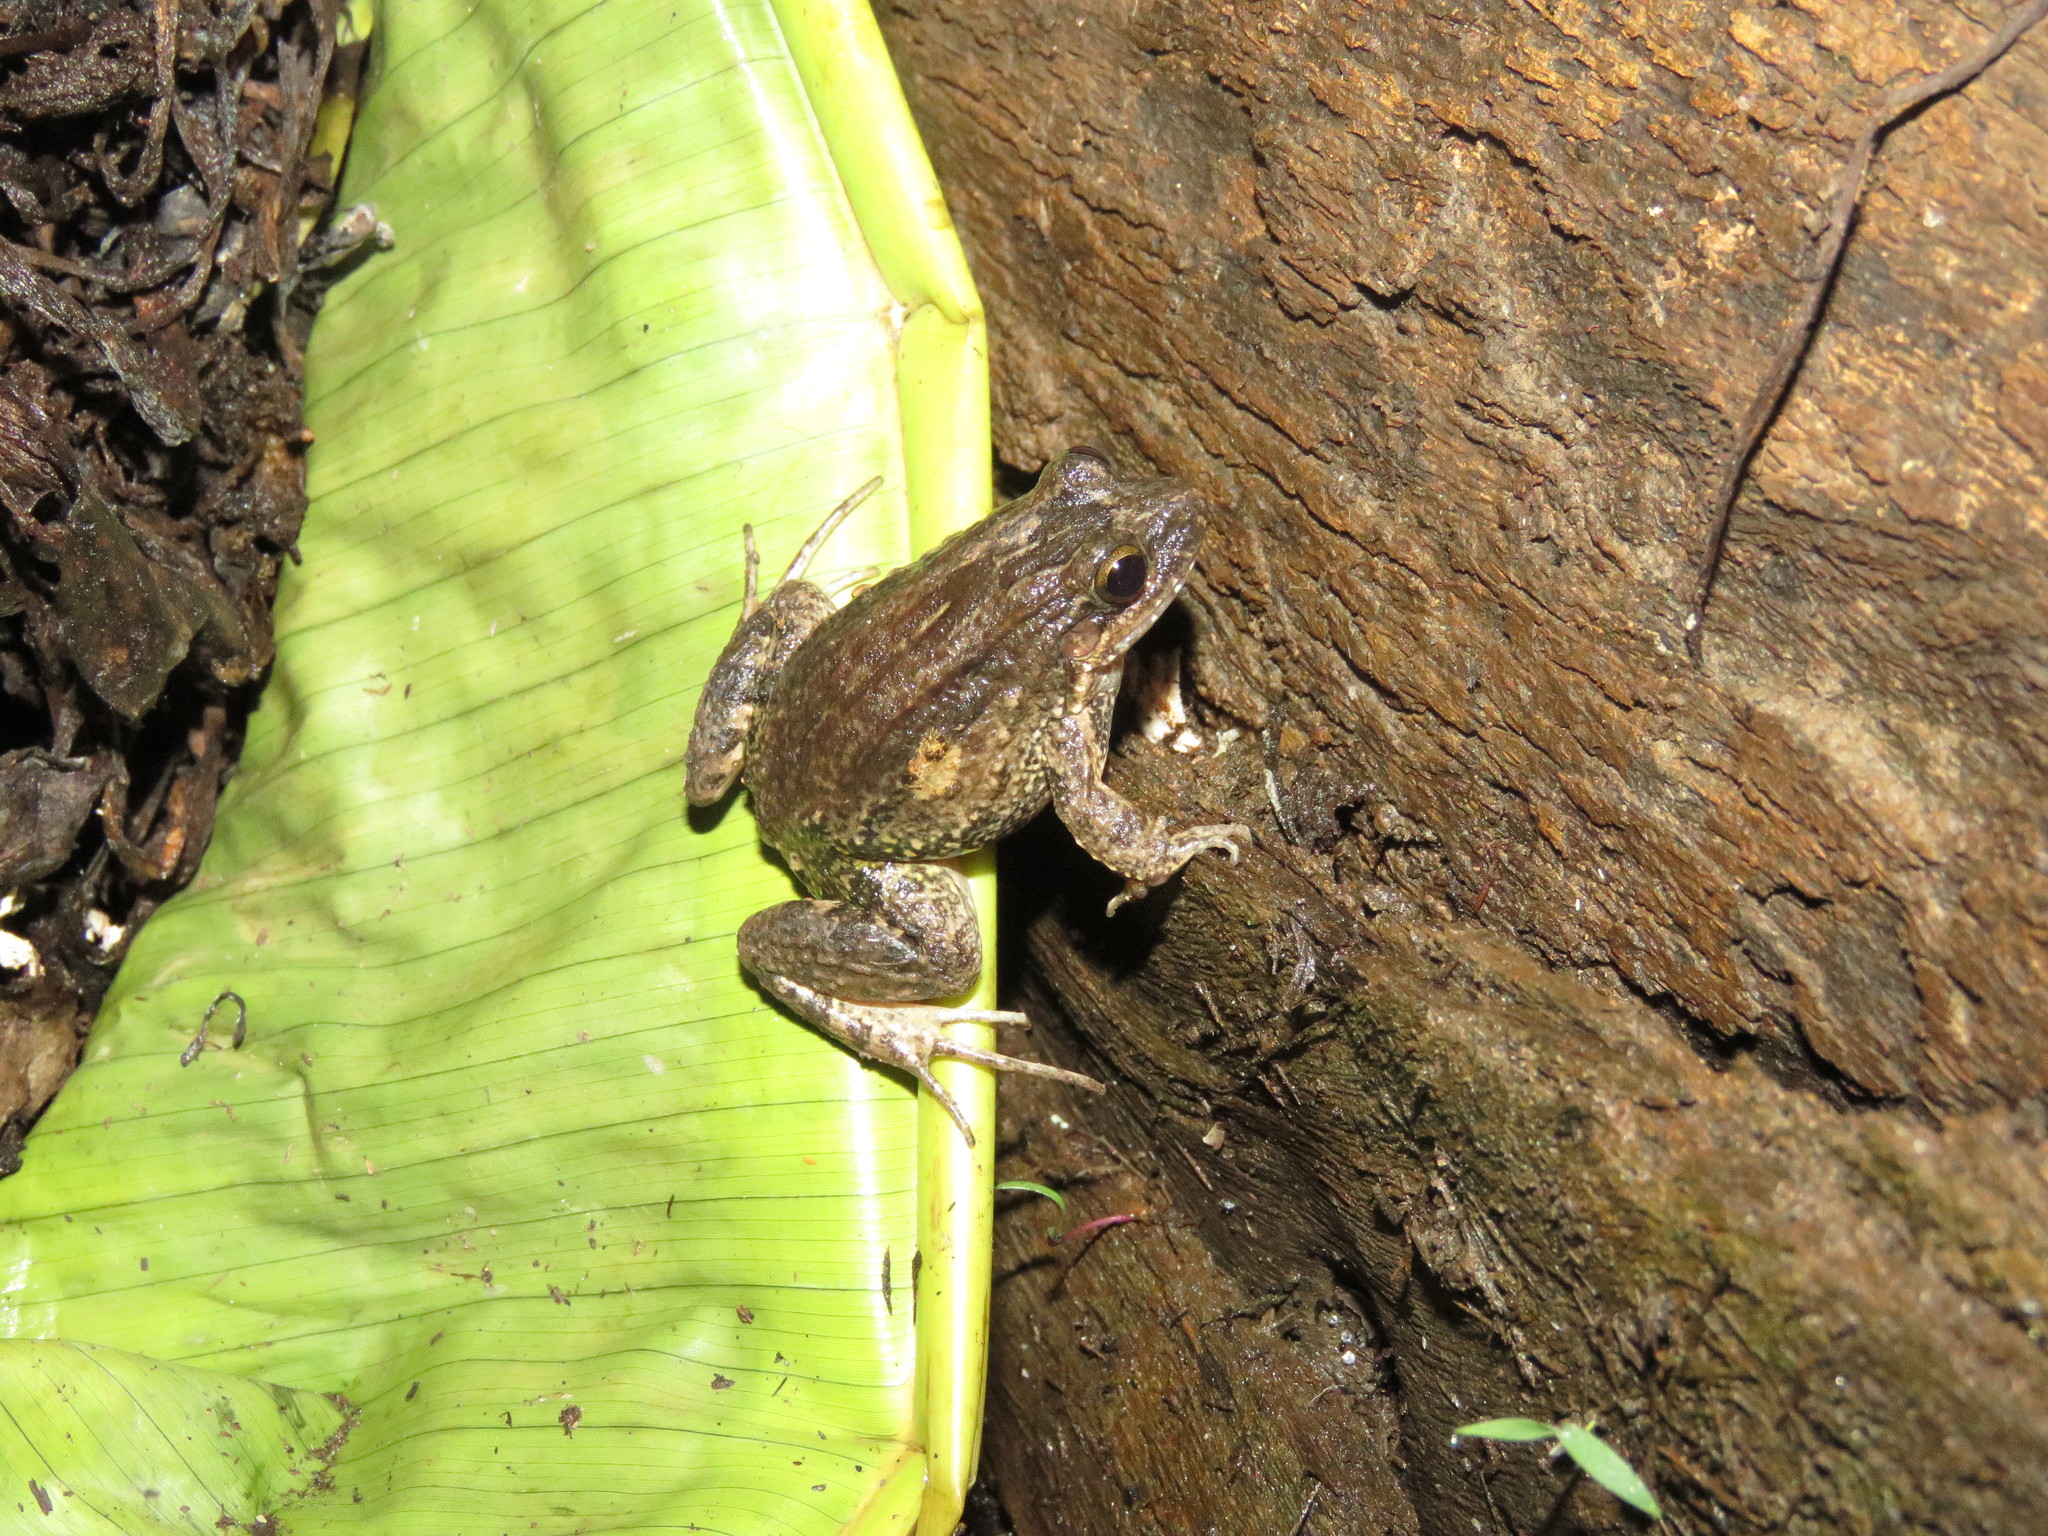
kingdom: Animalia
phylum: Chordata
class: Amphibia
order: Anura
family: Leptodactylidae
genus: Leptodactylus
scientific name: Leptodactylus petersii
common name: Peters' thin-toed frog
